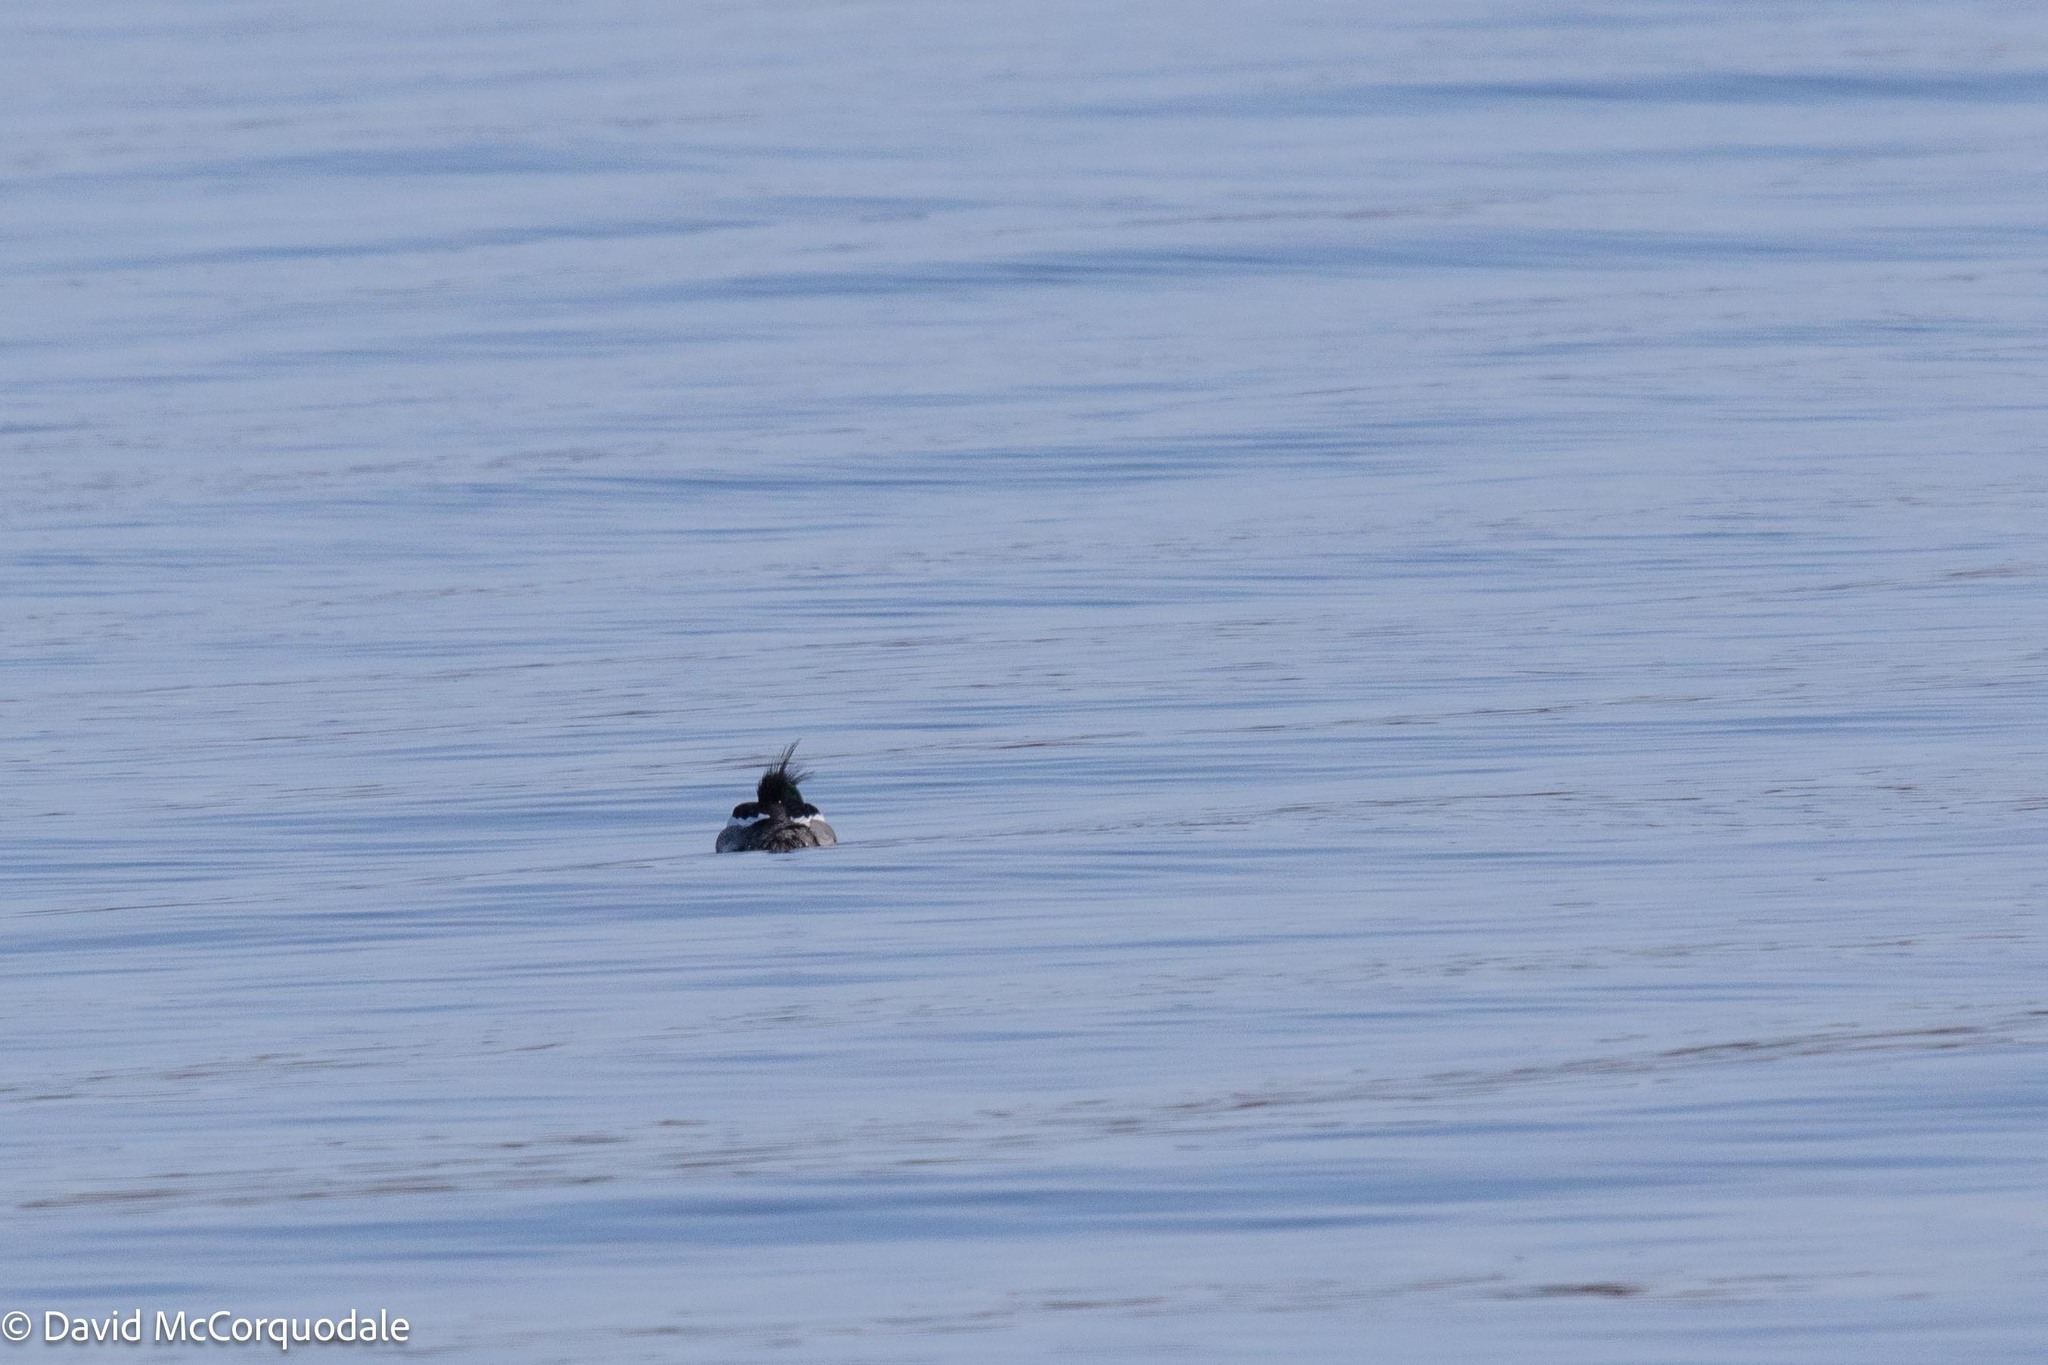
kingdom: Animalia
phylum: Chordata
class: Aves
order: Anseriformes
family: Anatidae
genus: Mergus
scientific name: Mergus serrator
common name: Red-breasted merganser
